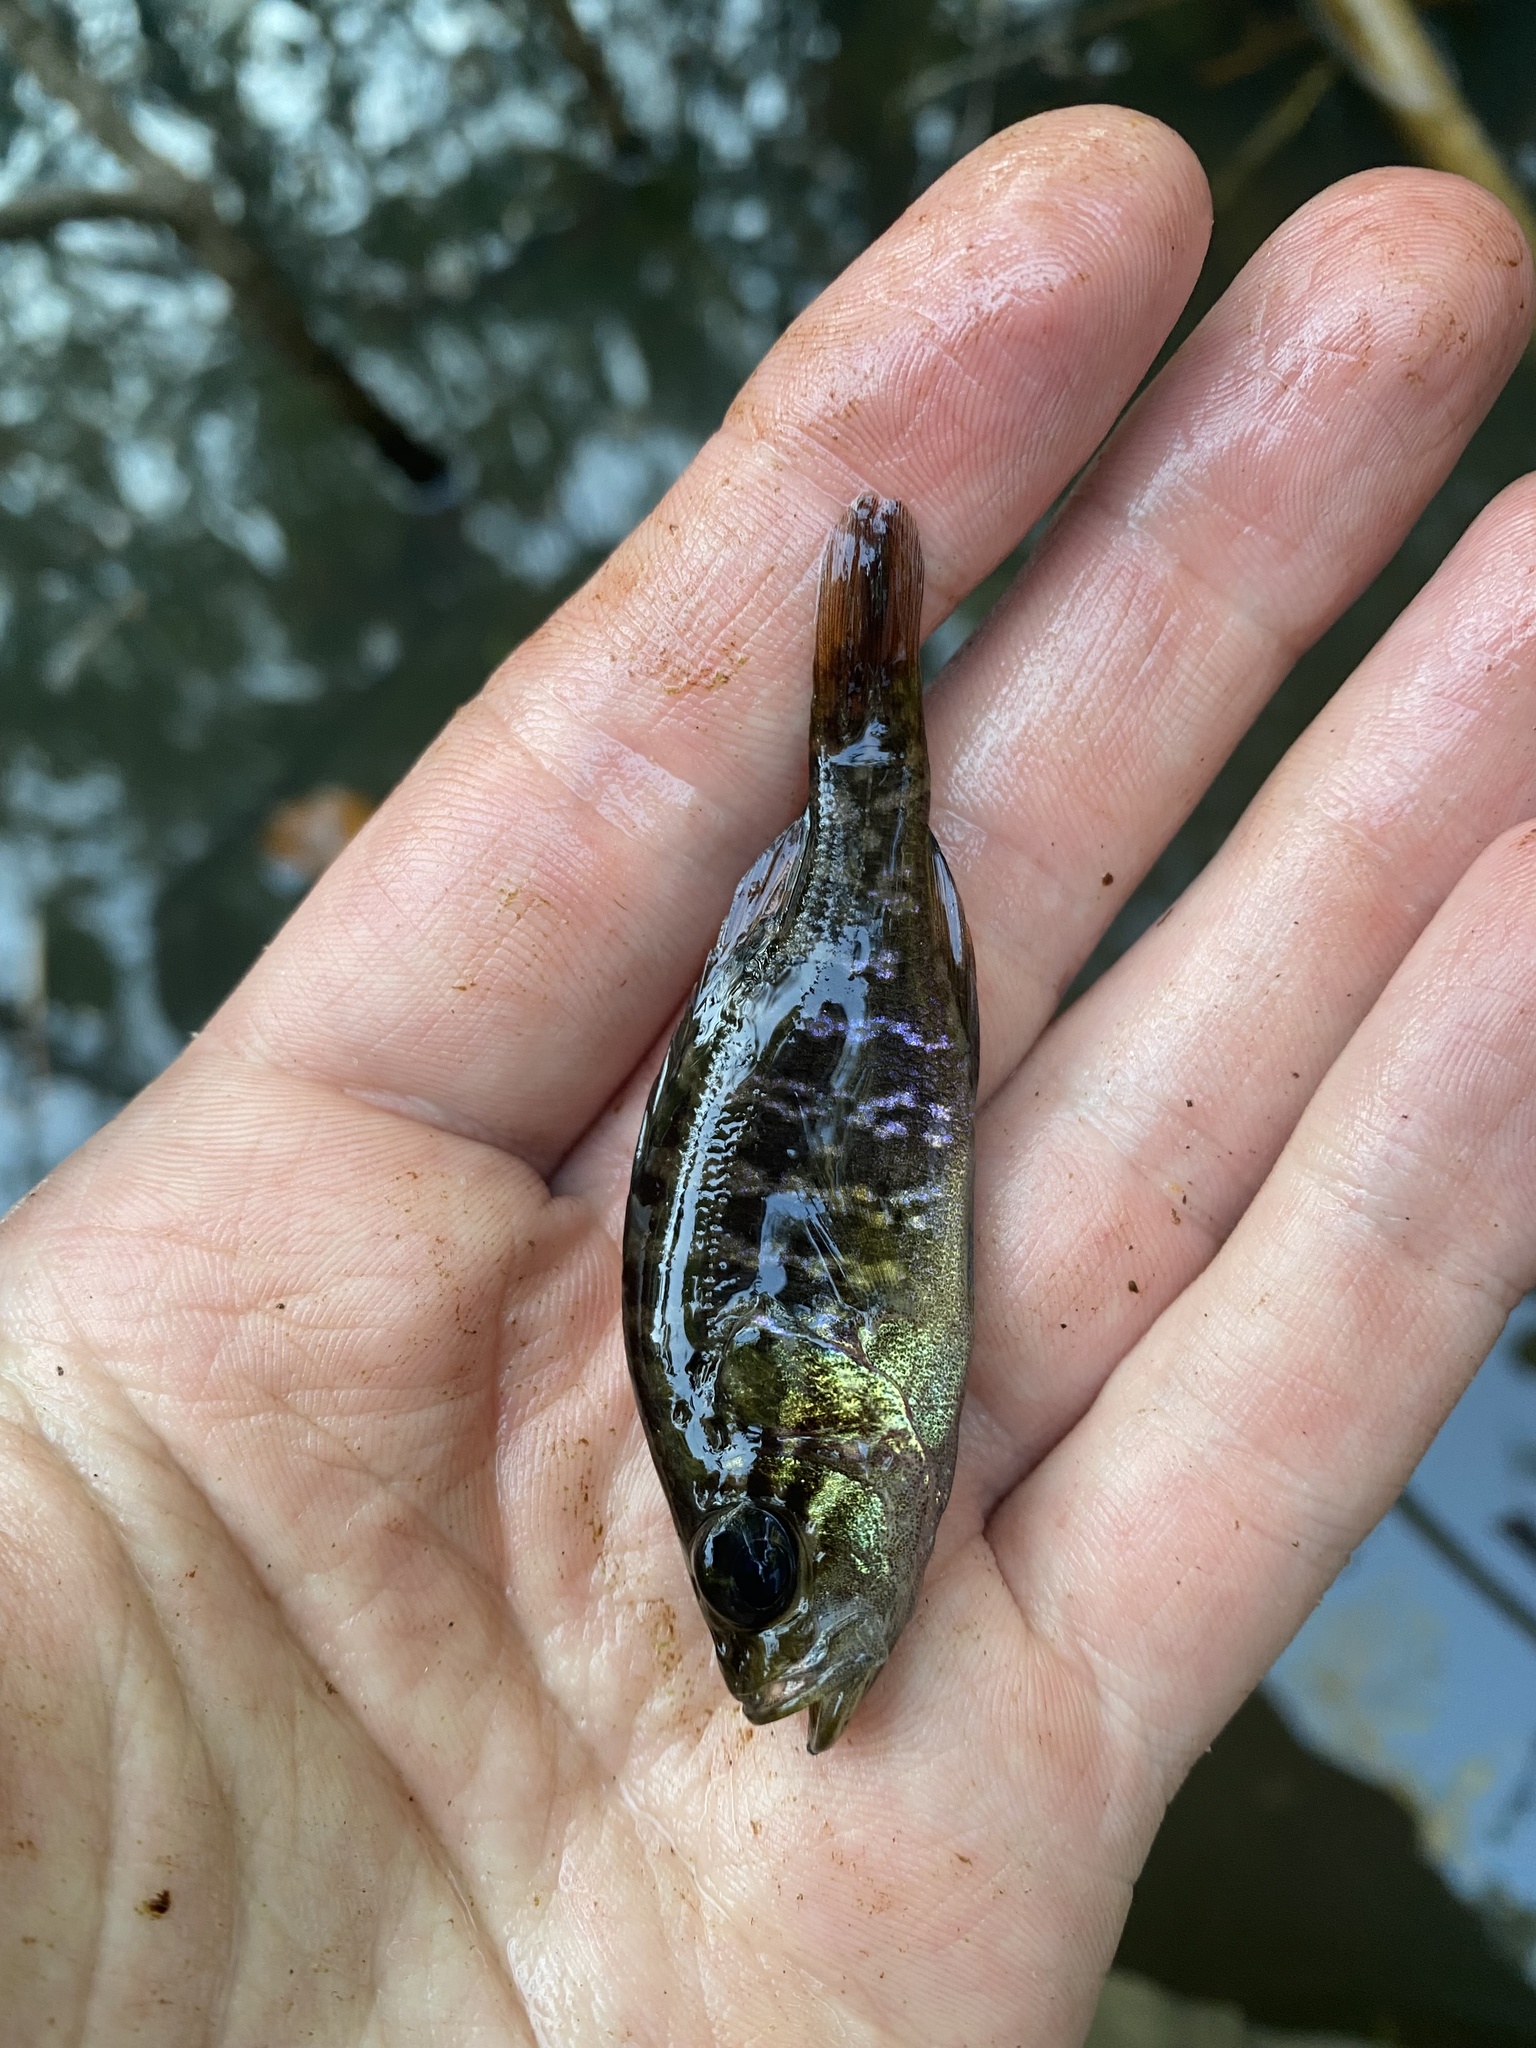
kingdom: Animalia
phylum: Chordata
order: Perciformes
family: Centrarchidae
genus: Lepomis
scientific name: Lepomis gulosus
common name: Warmouth
